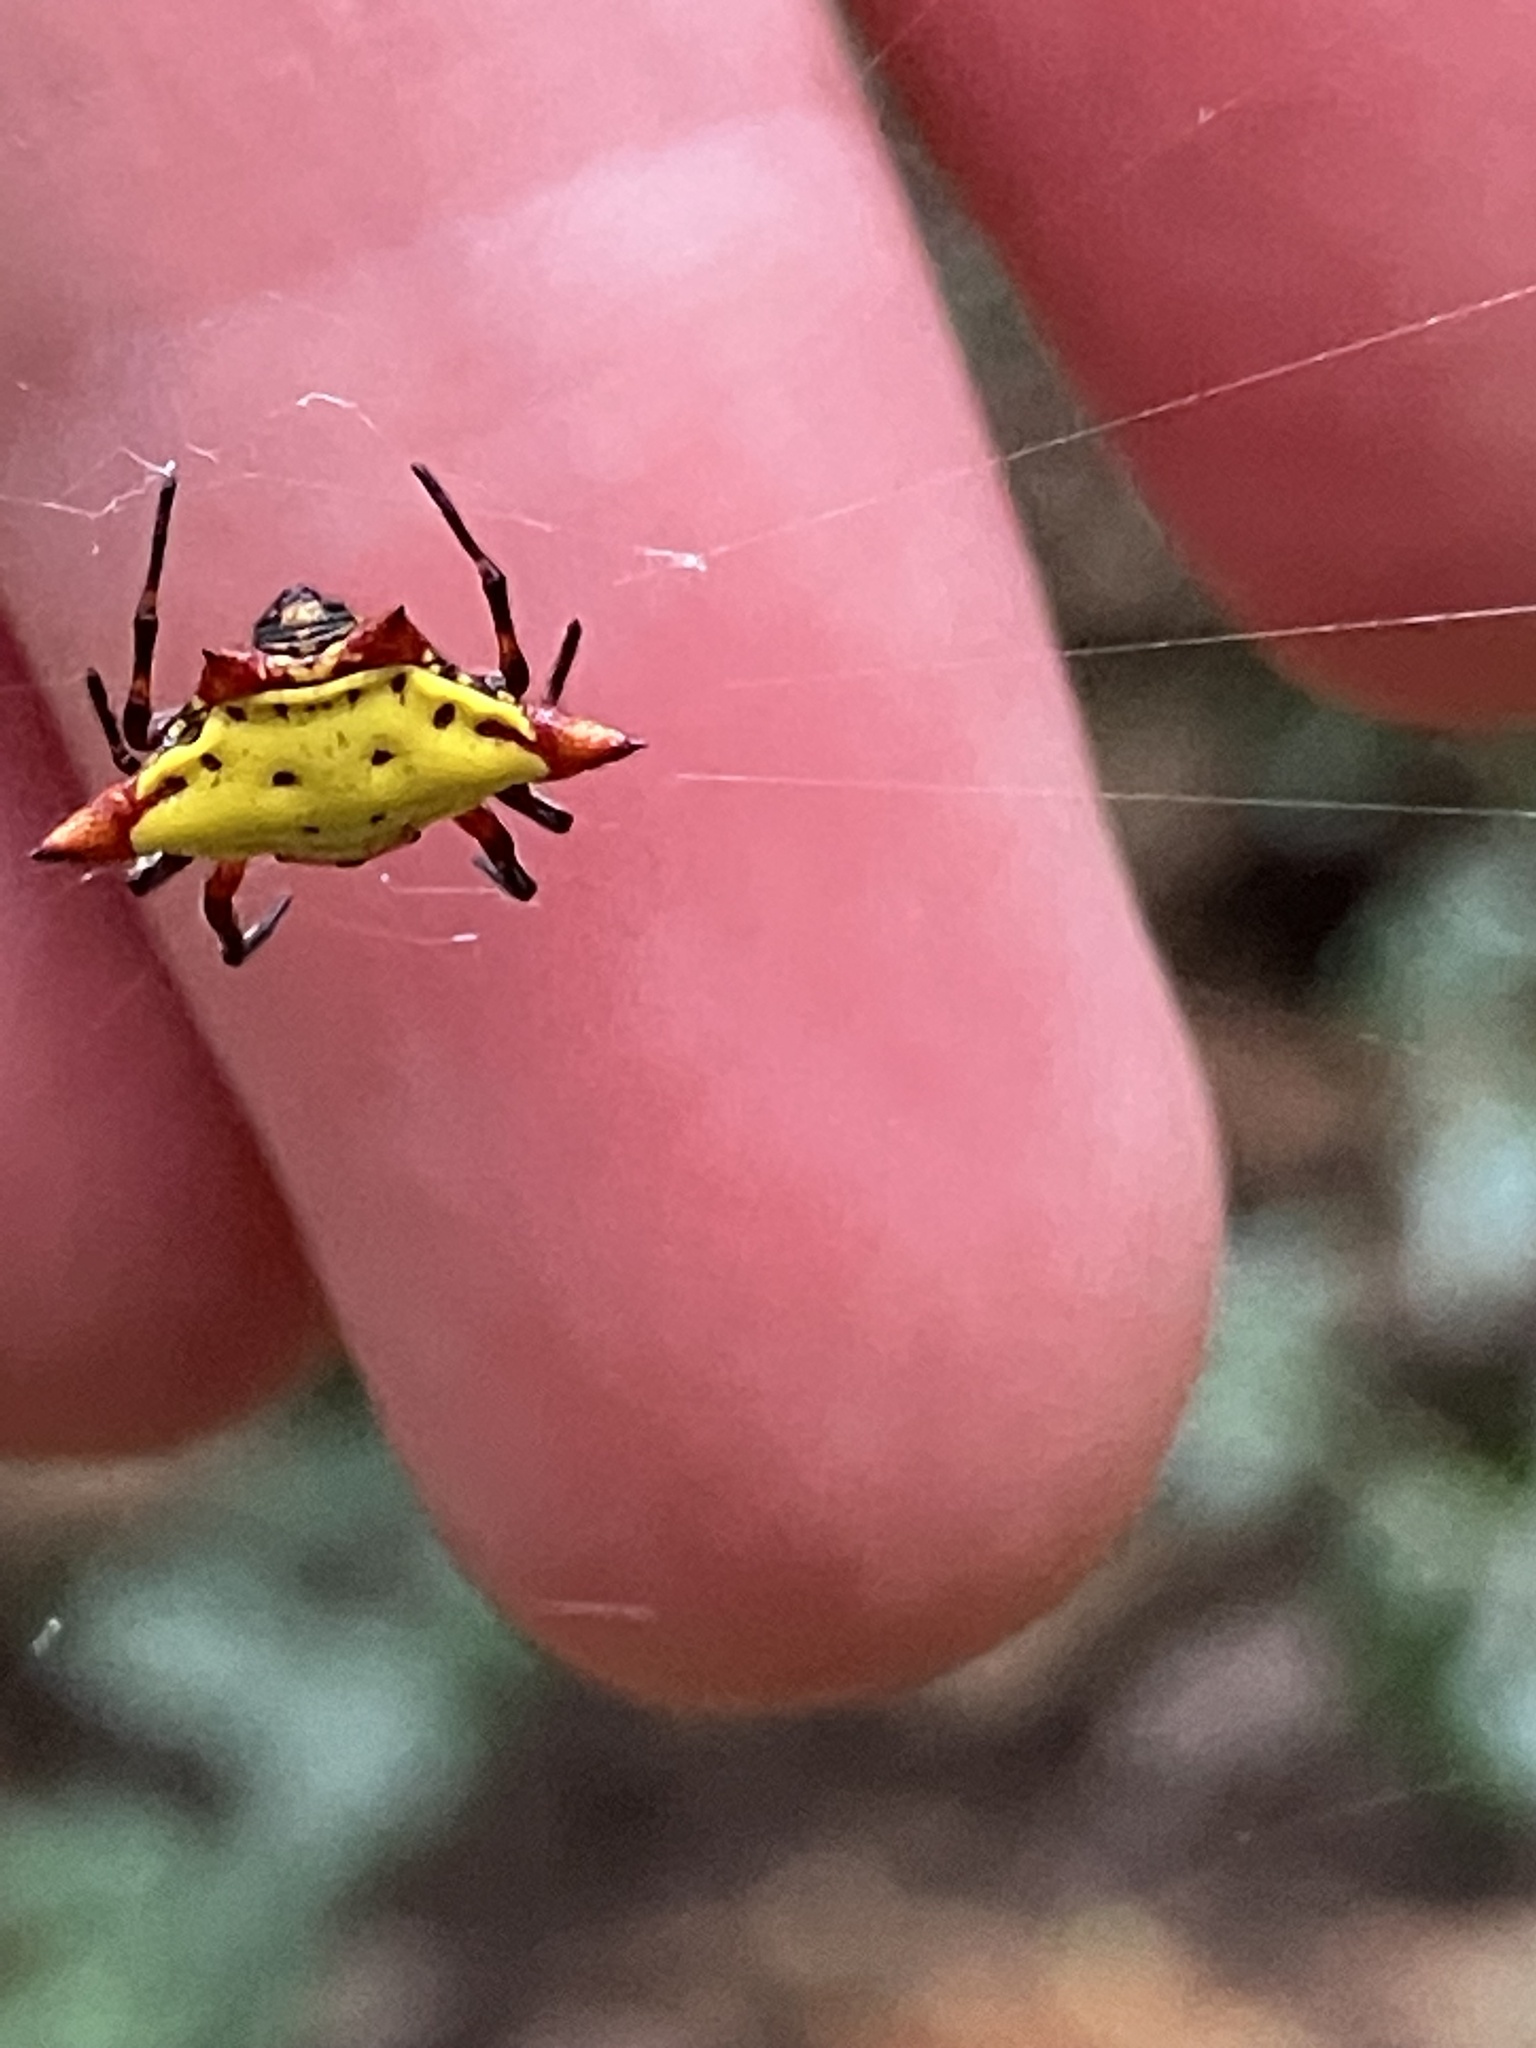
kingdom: Animalia
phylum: Arthropoda
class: Arachnida
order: Araneae
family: Araneidae
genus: Gasteracantha
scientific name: Gasteracantha cancriformis
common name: Orb weavers
